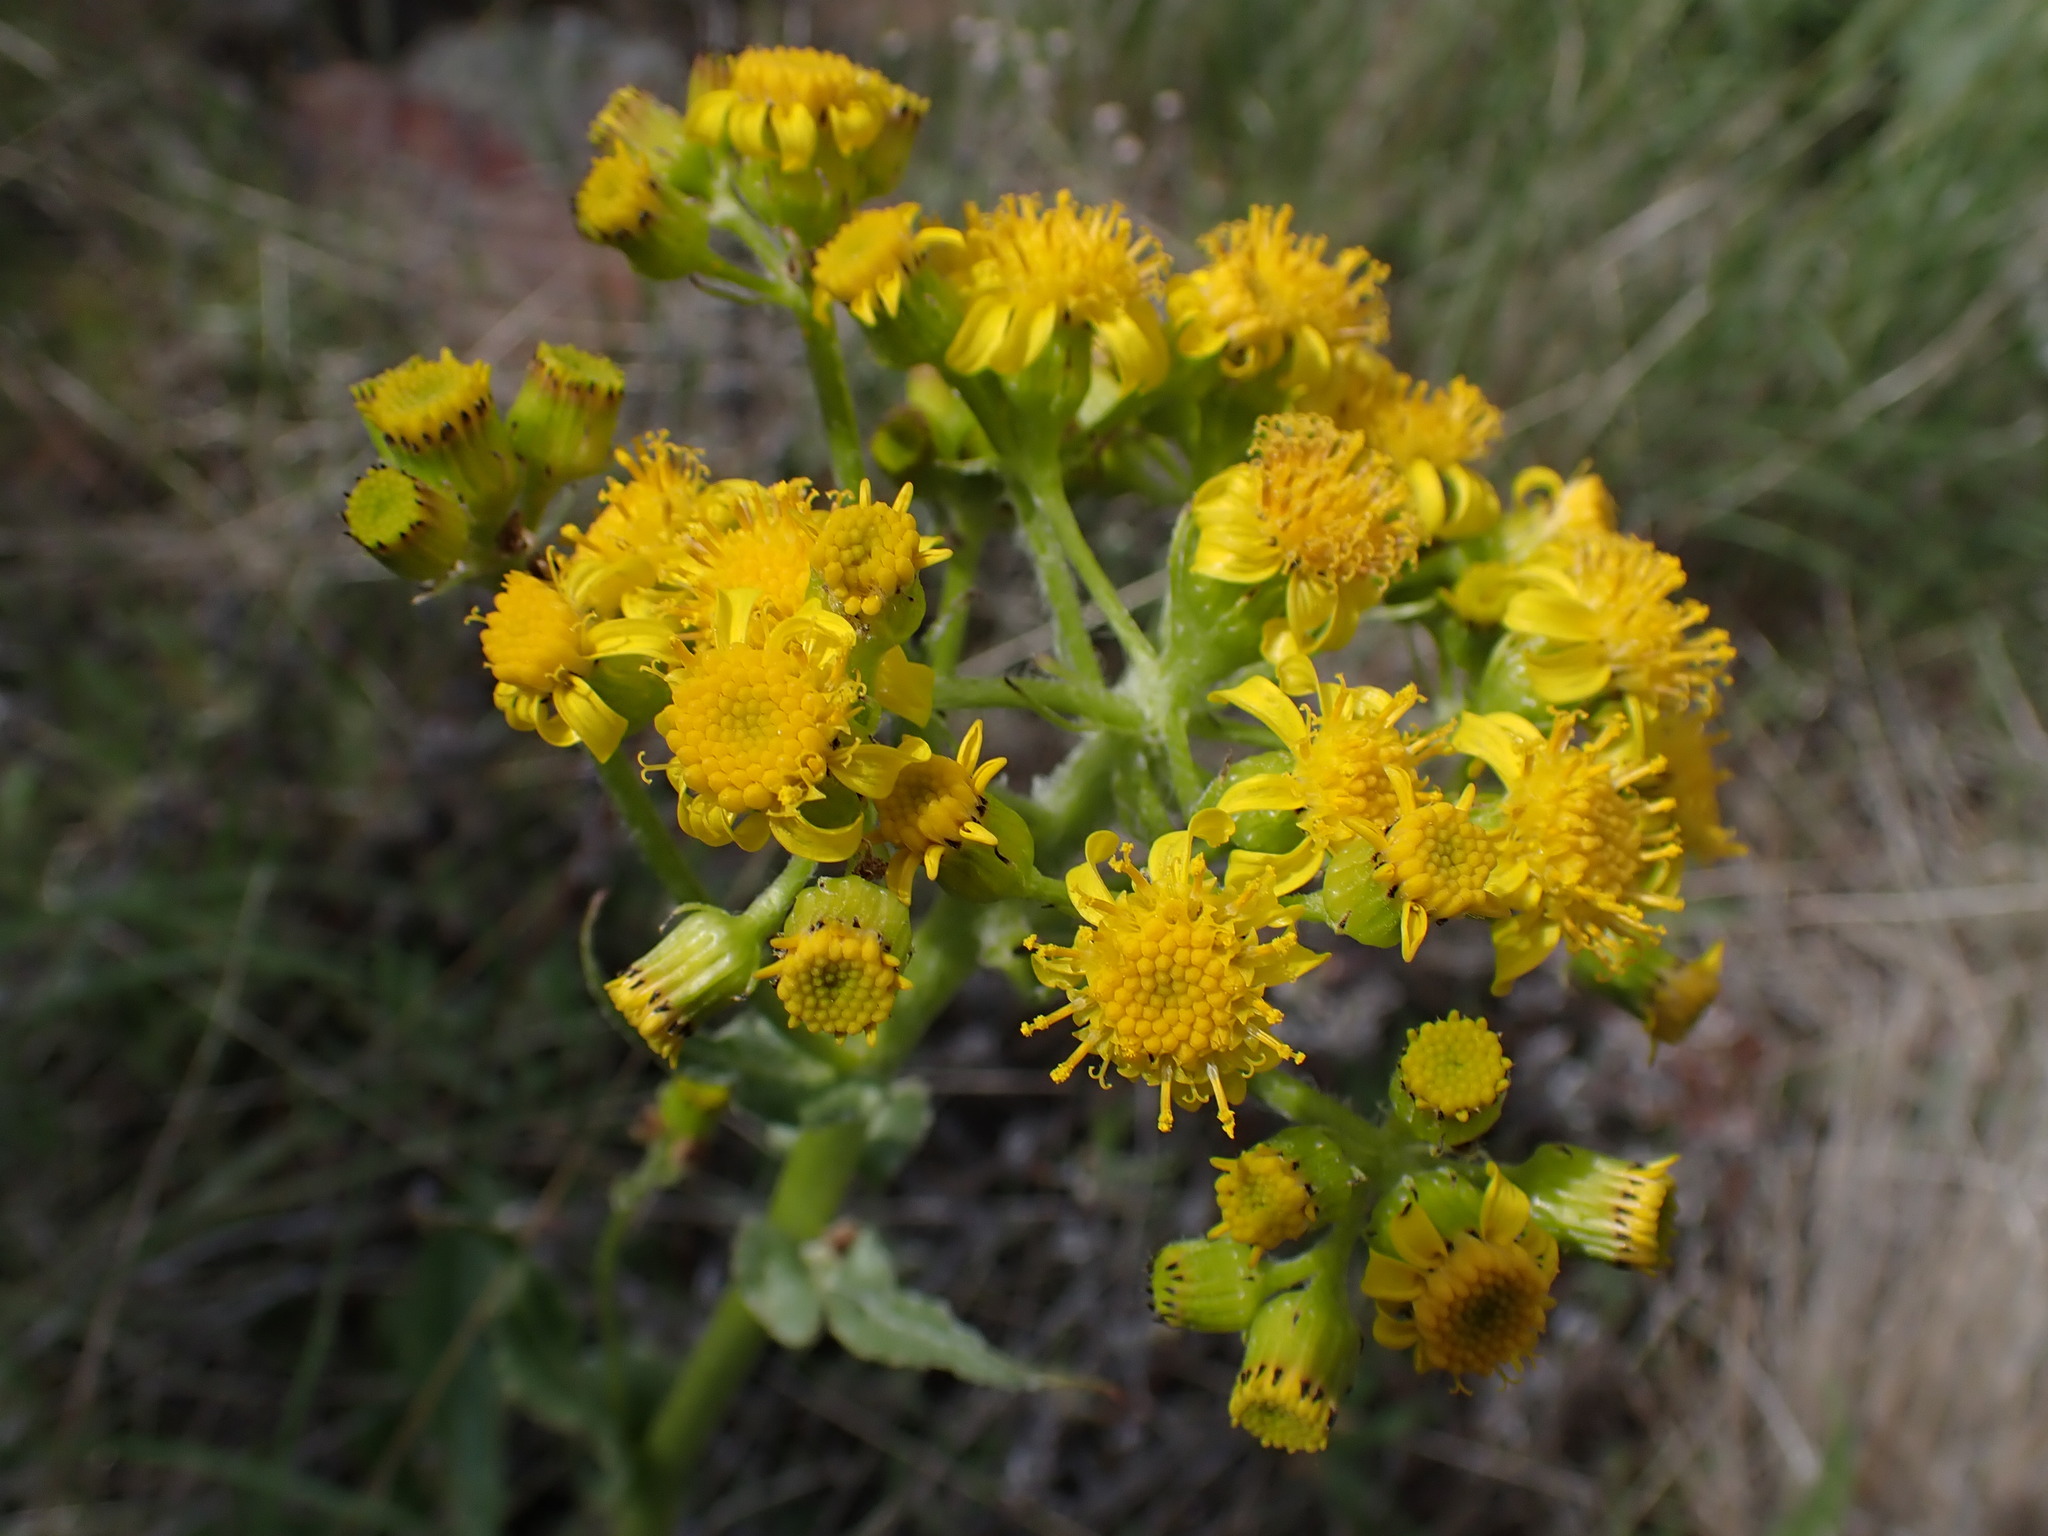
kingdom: Plantae
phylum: Tracheophyta
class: Magnoliopsida
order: Asterales
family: Asteraceae
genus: Senecio
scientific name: Senecio integerrimus
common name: Gaugeplant
